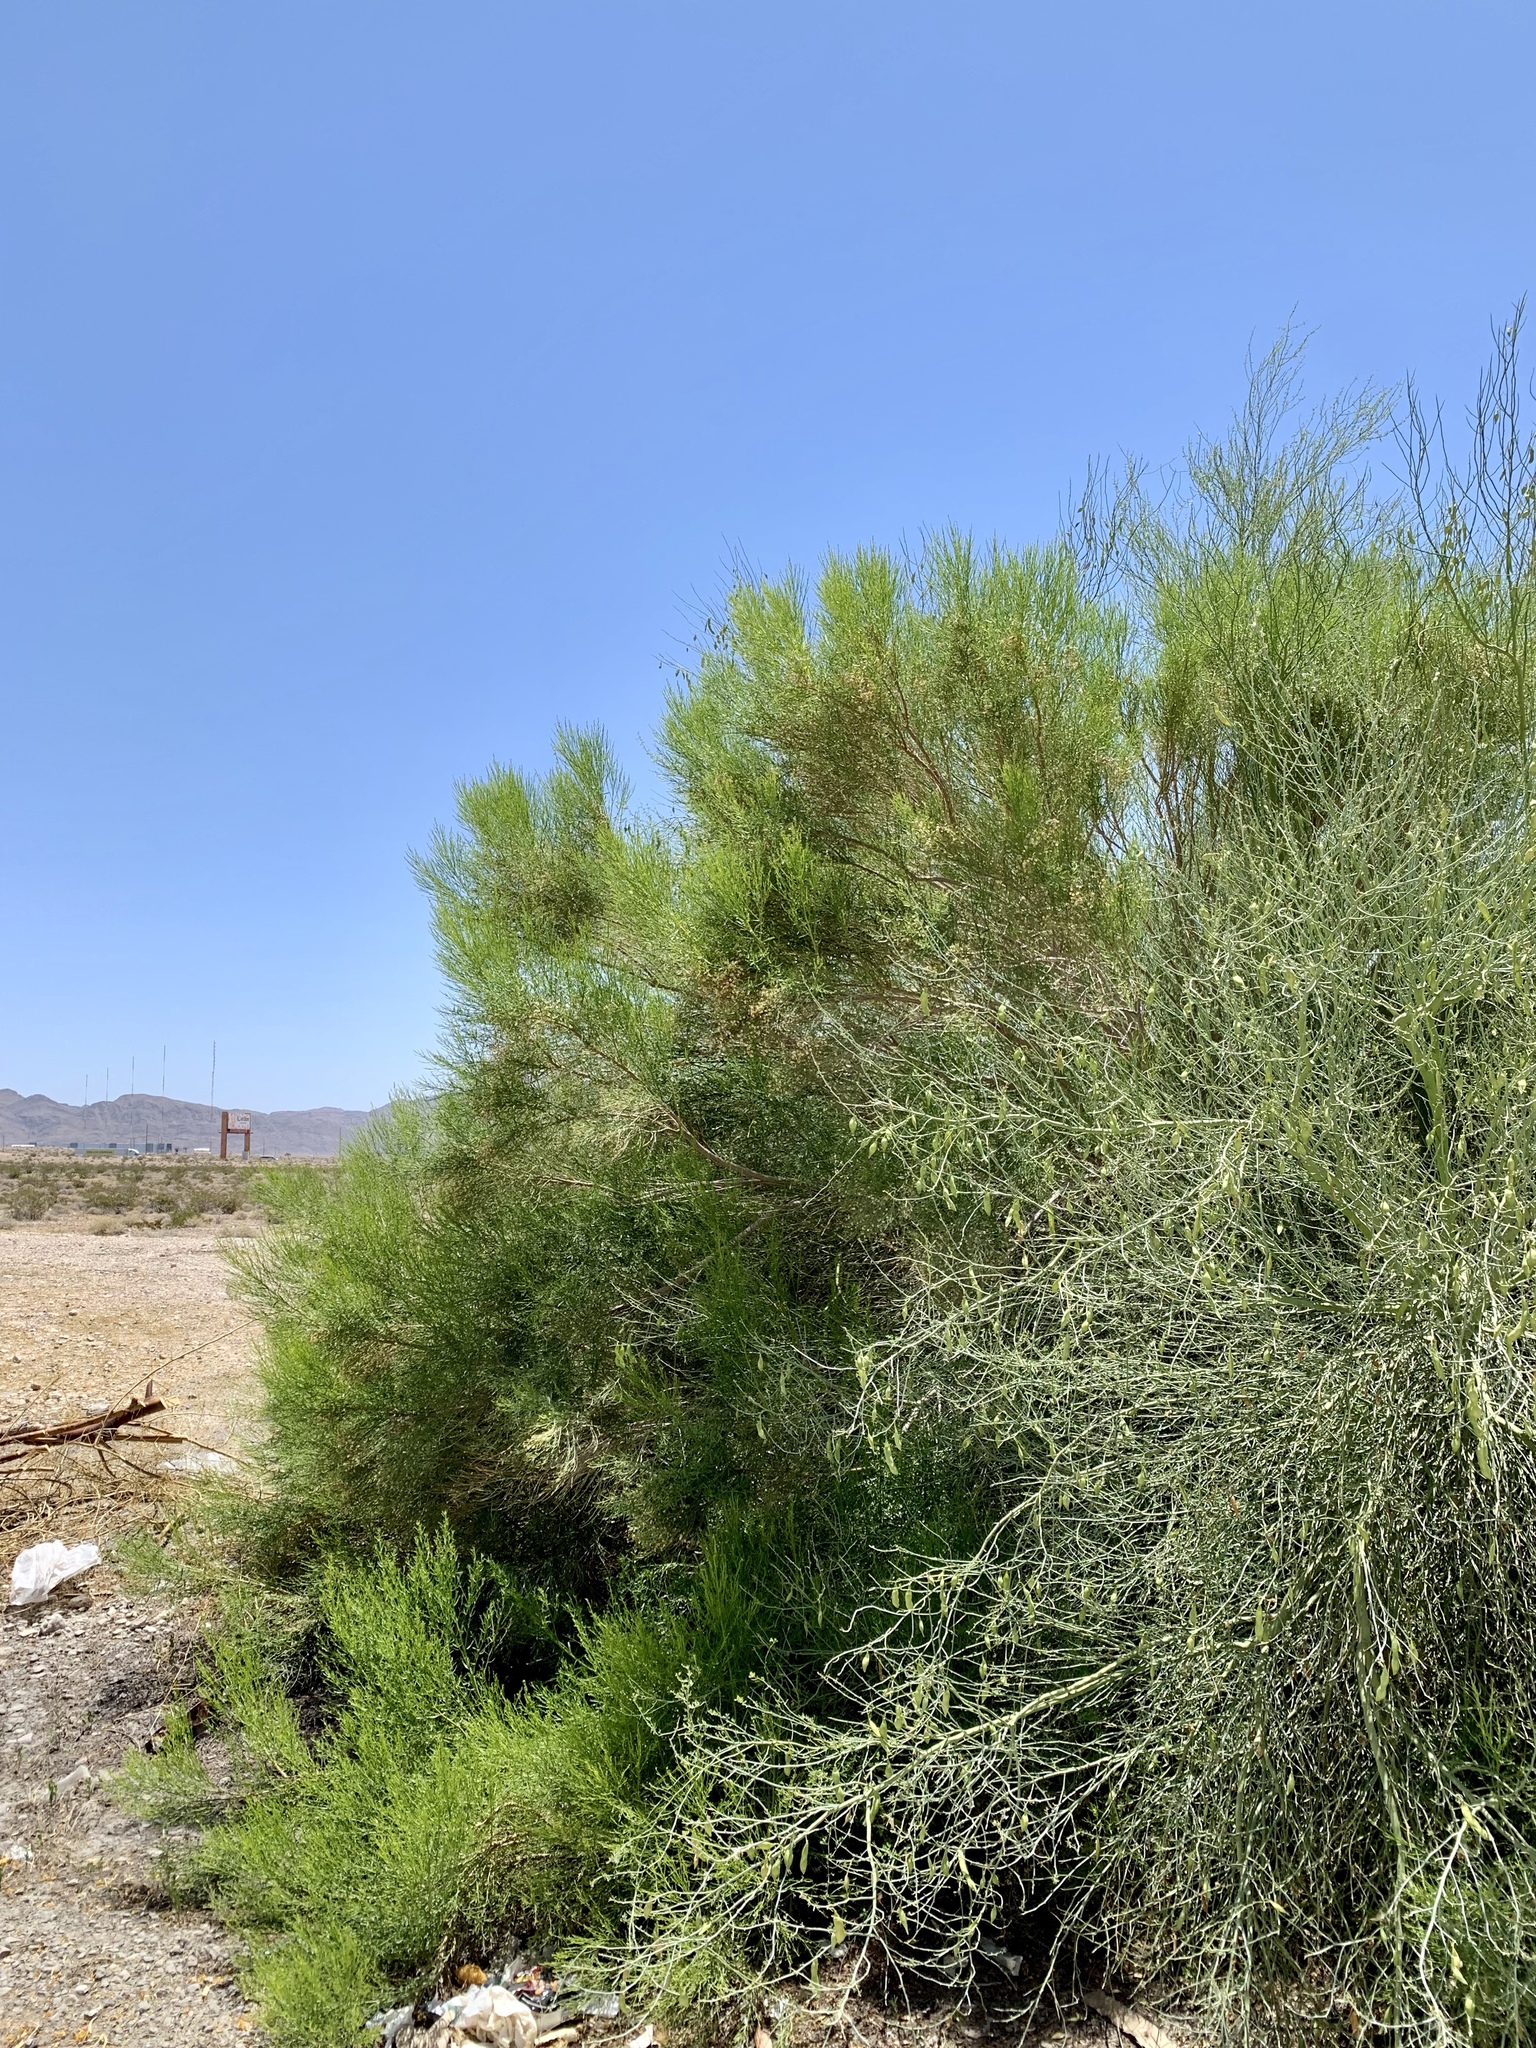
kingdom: Plantae
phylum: Tracheophyta
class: Magnoliopsida
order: Asterales
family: Asteraceae
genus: Baccharis
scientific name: Baccharis sarothroides
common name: Desert-broom
